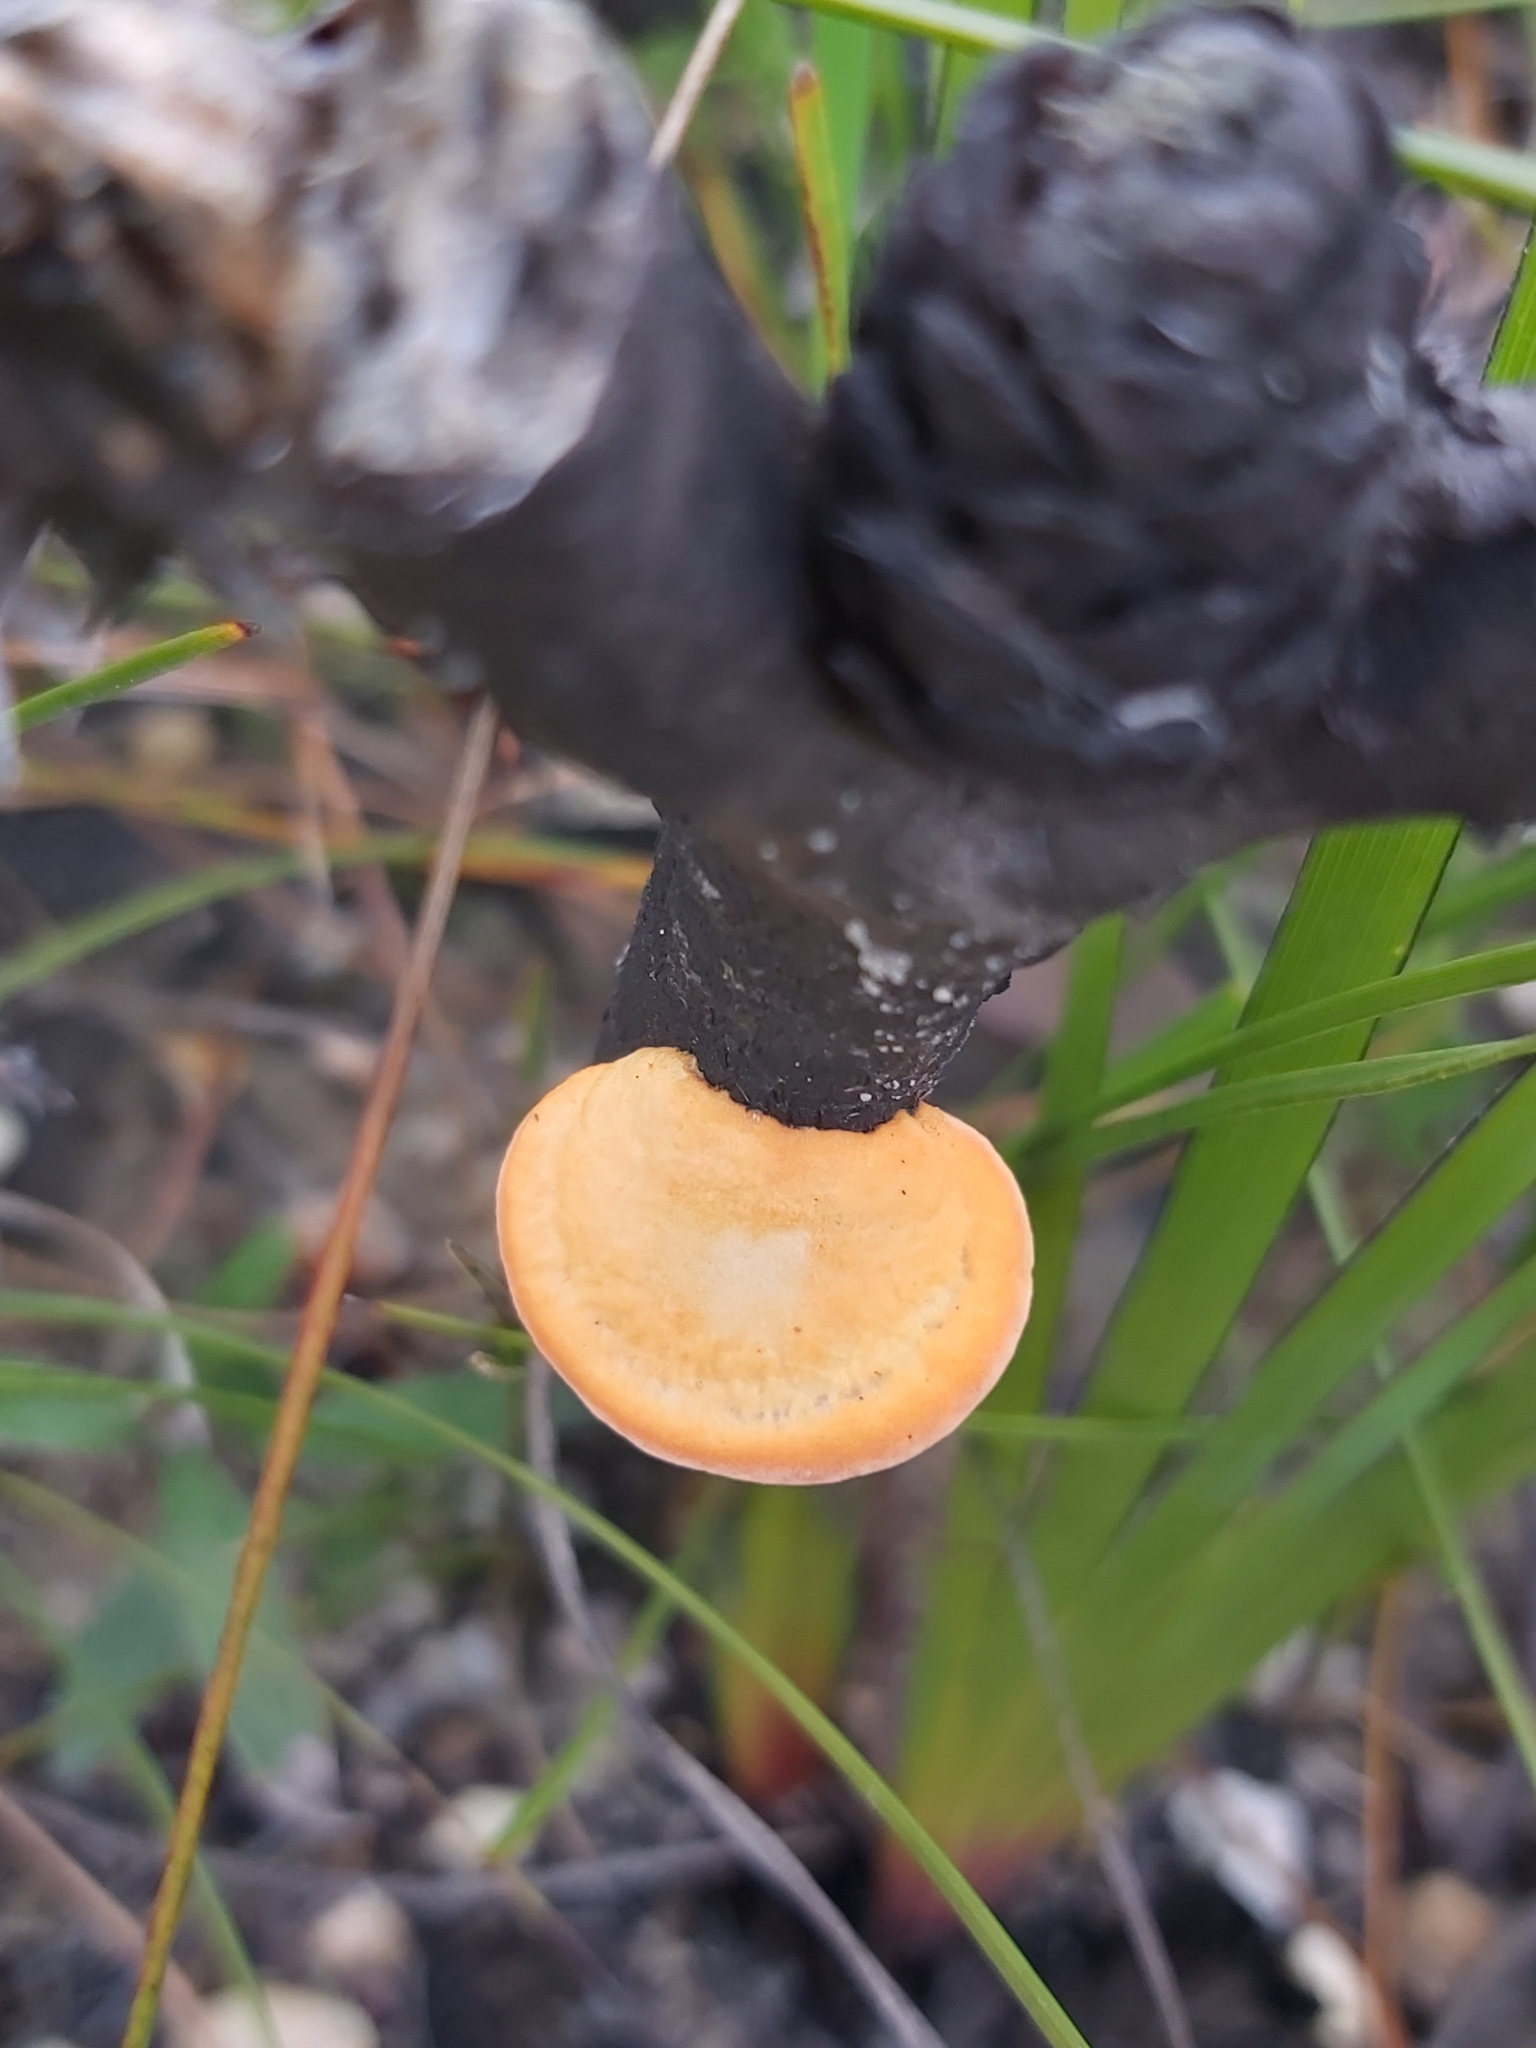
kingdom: Fungi
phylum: Basidiomycota
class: Agaricomycetes
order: Polyporales
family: Polyporaceae
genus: Trametes
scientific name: Trametes coccinea
